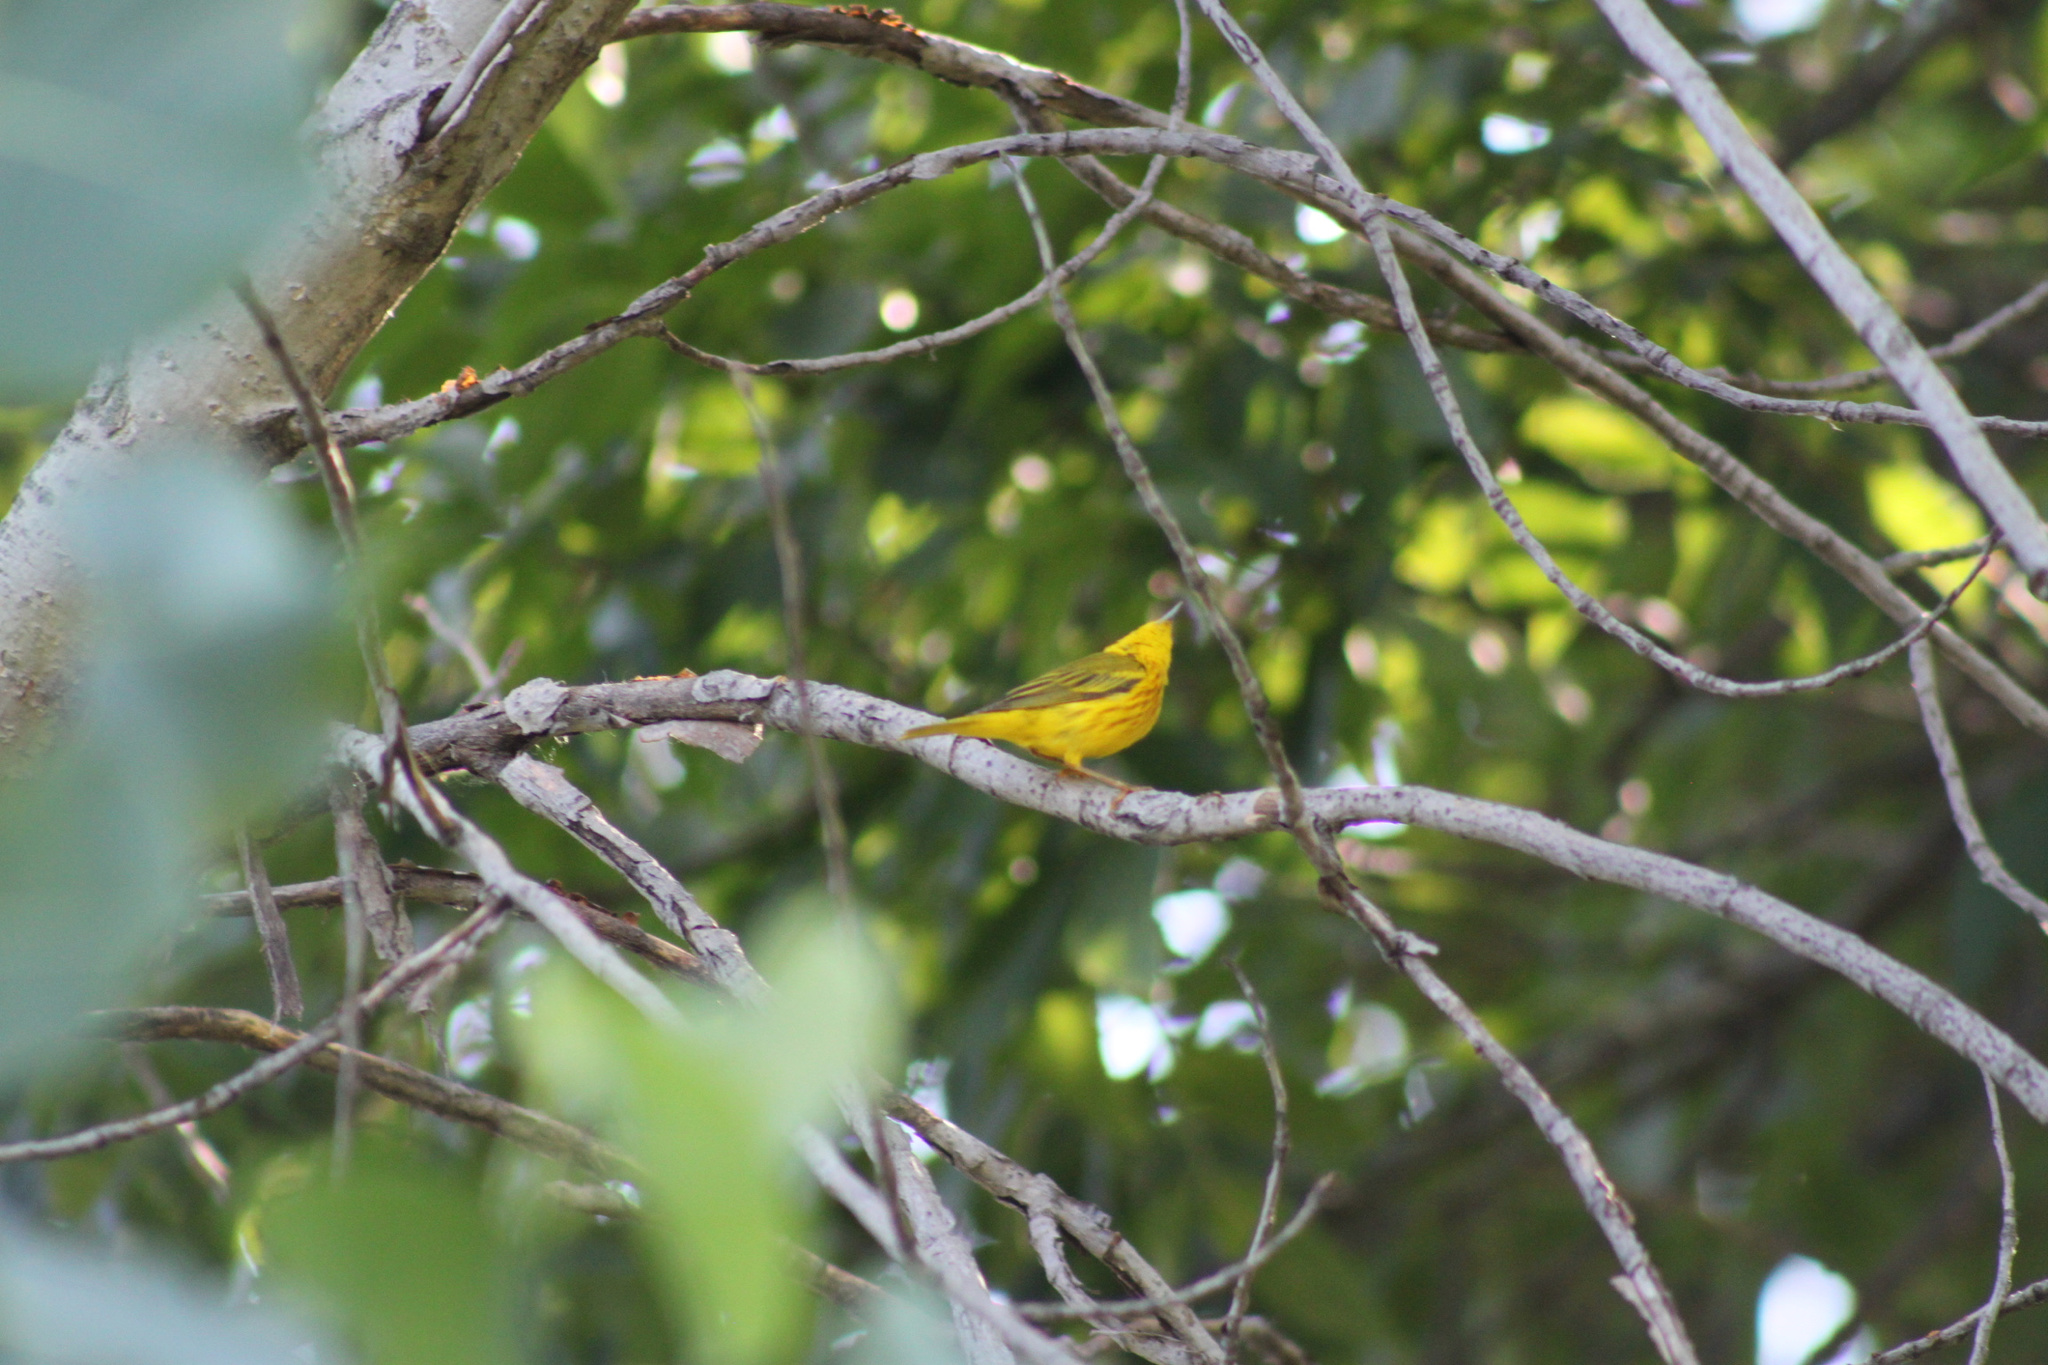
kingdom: Animalia
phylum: Chordata
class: Aves
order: Passeriformes
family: Parulidae
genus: Setophaga
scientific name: Setophaga petechia
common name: Yellow warbler
